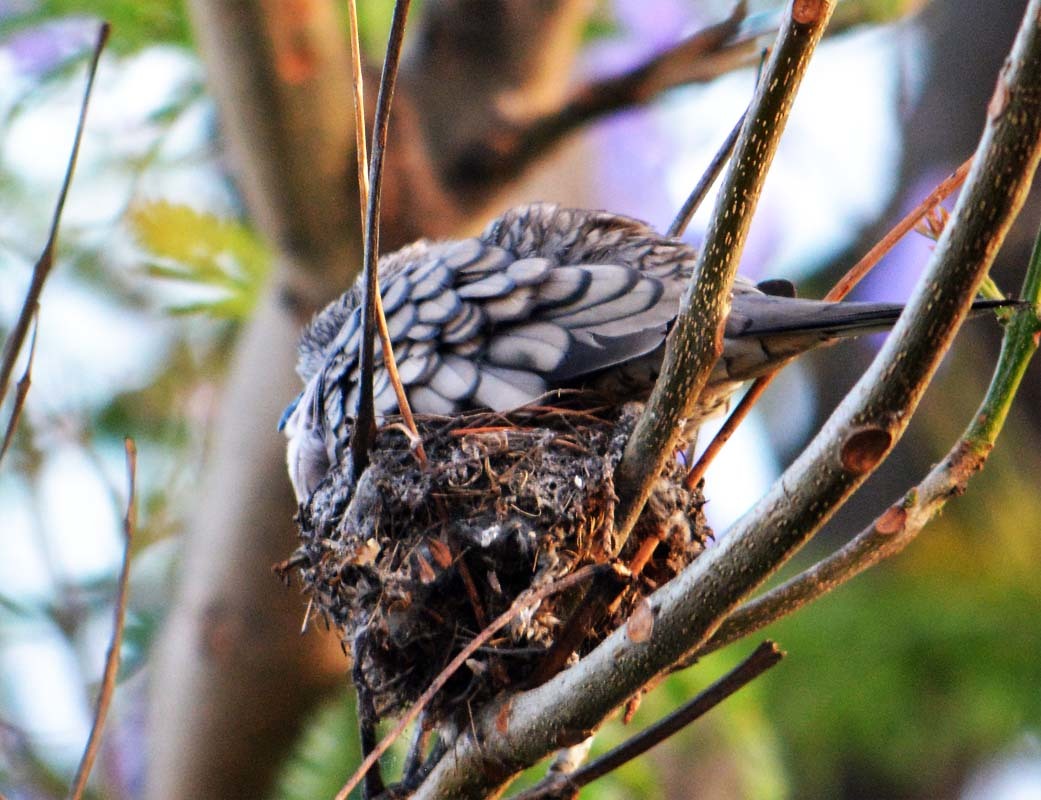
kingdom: Animalia
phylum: Chordata
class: Aves
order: Columbiformes
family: Columbidae
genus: Columbina
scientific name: Columbina inca
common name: Inca dove
